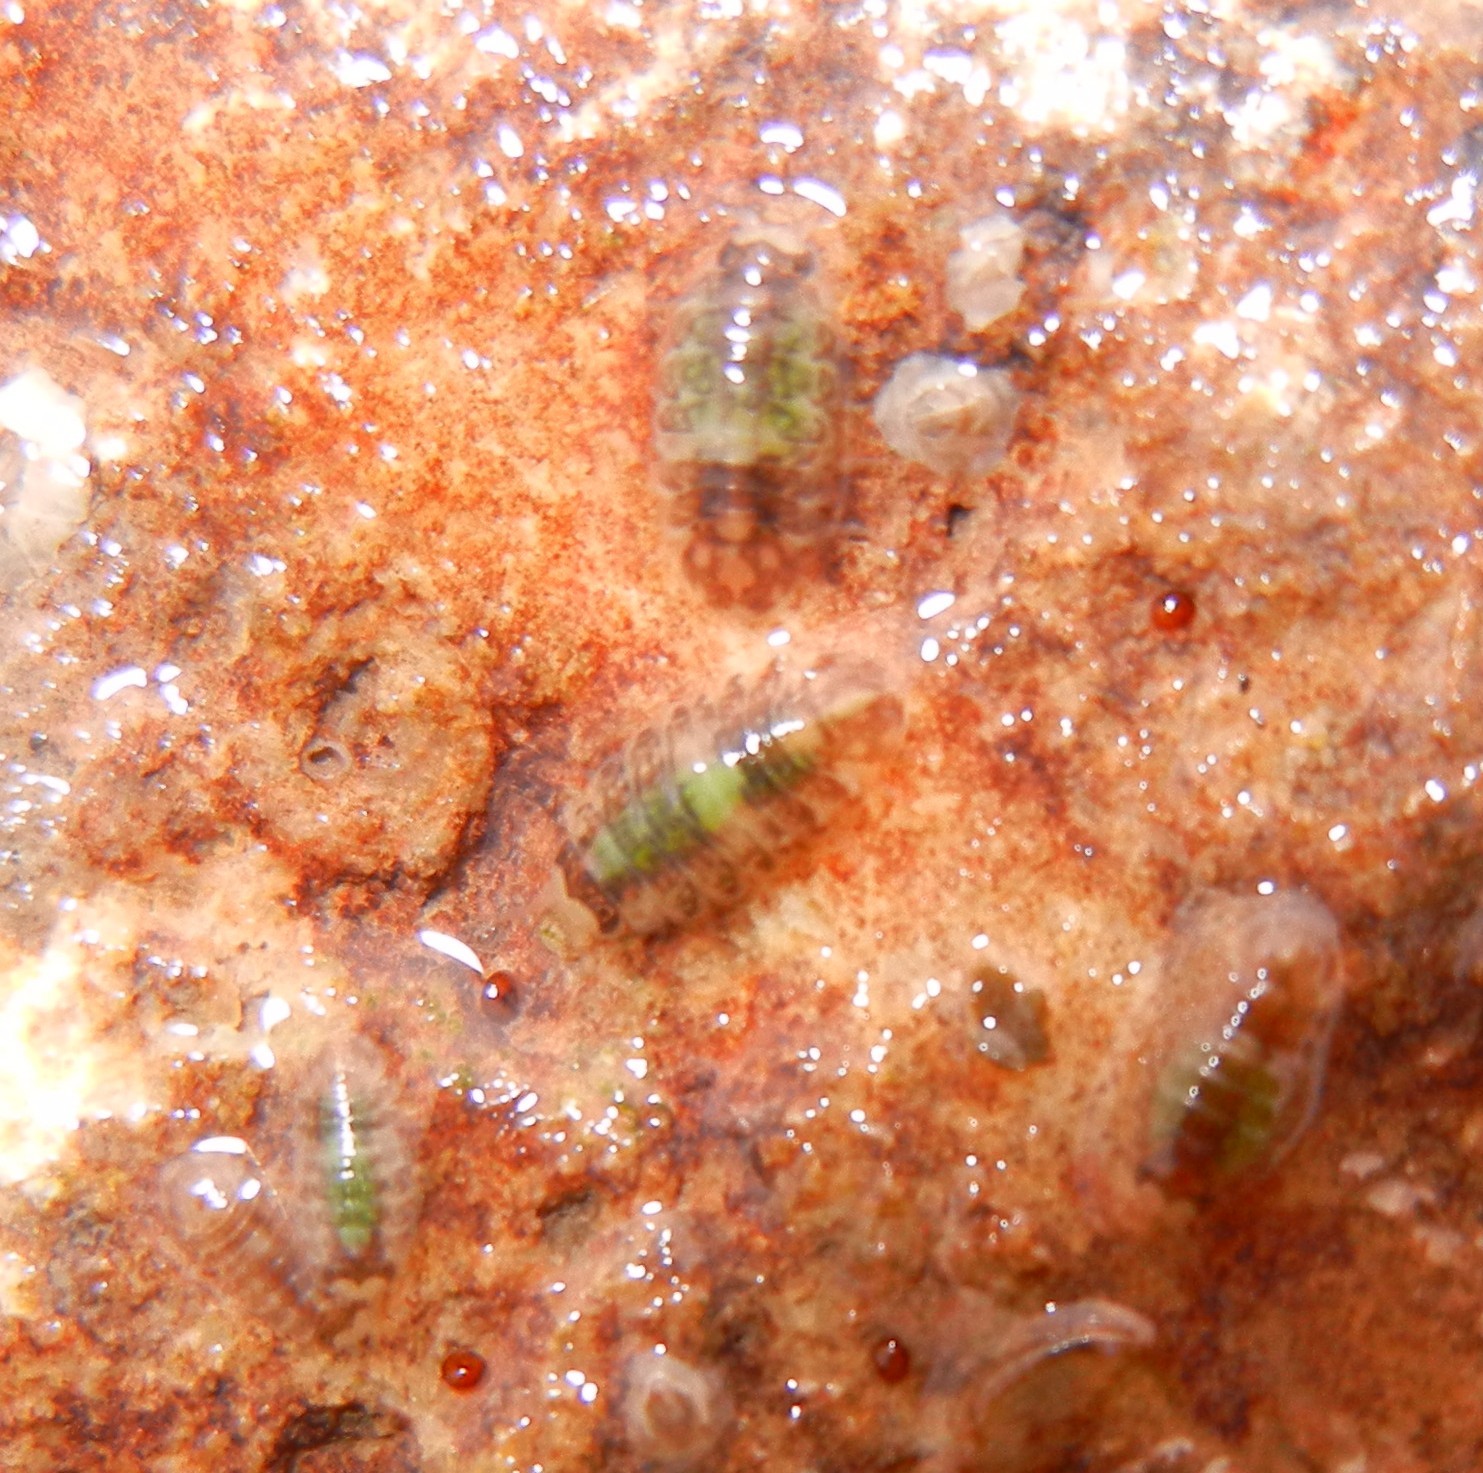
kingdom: Animalia
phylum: Arthropoda
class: Malacostraca
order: Isopoda
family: Janiridae
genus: Jaera
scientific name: Jaera
